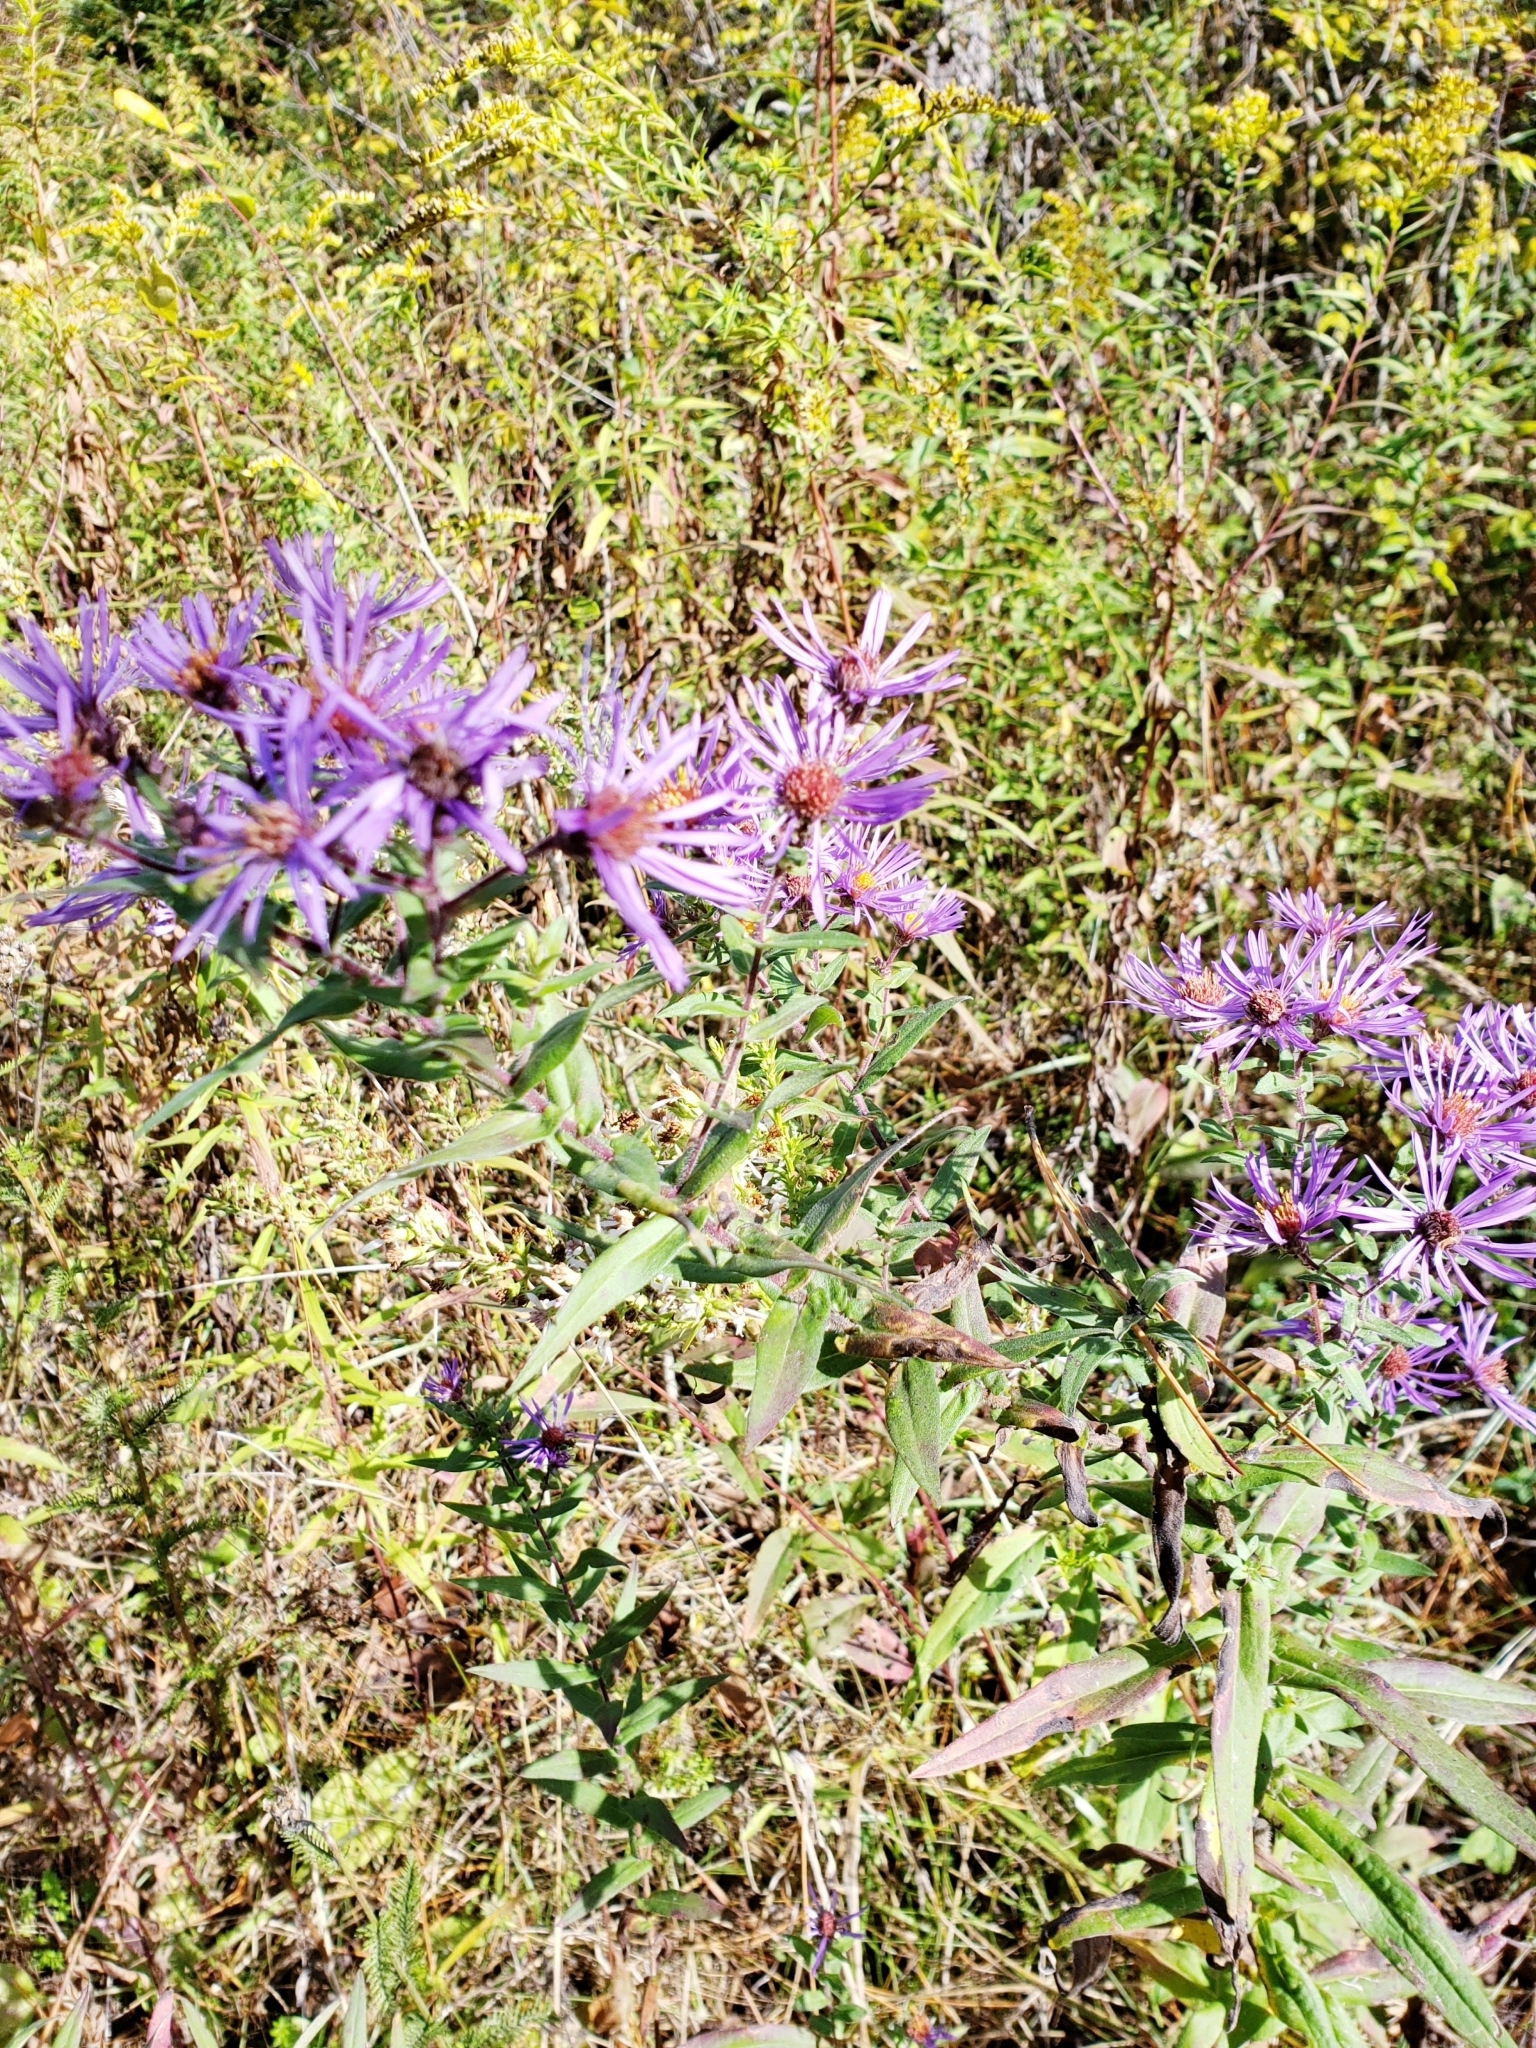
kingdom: Plantae
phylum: Tracheophyta
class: Magnoliopsida
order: Asterales
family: Asteraceae
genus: Symphyotrichum
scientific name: Symphyotrichum novae-angliae
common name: Michaelmas daisy
